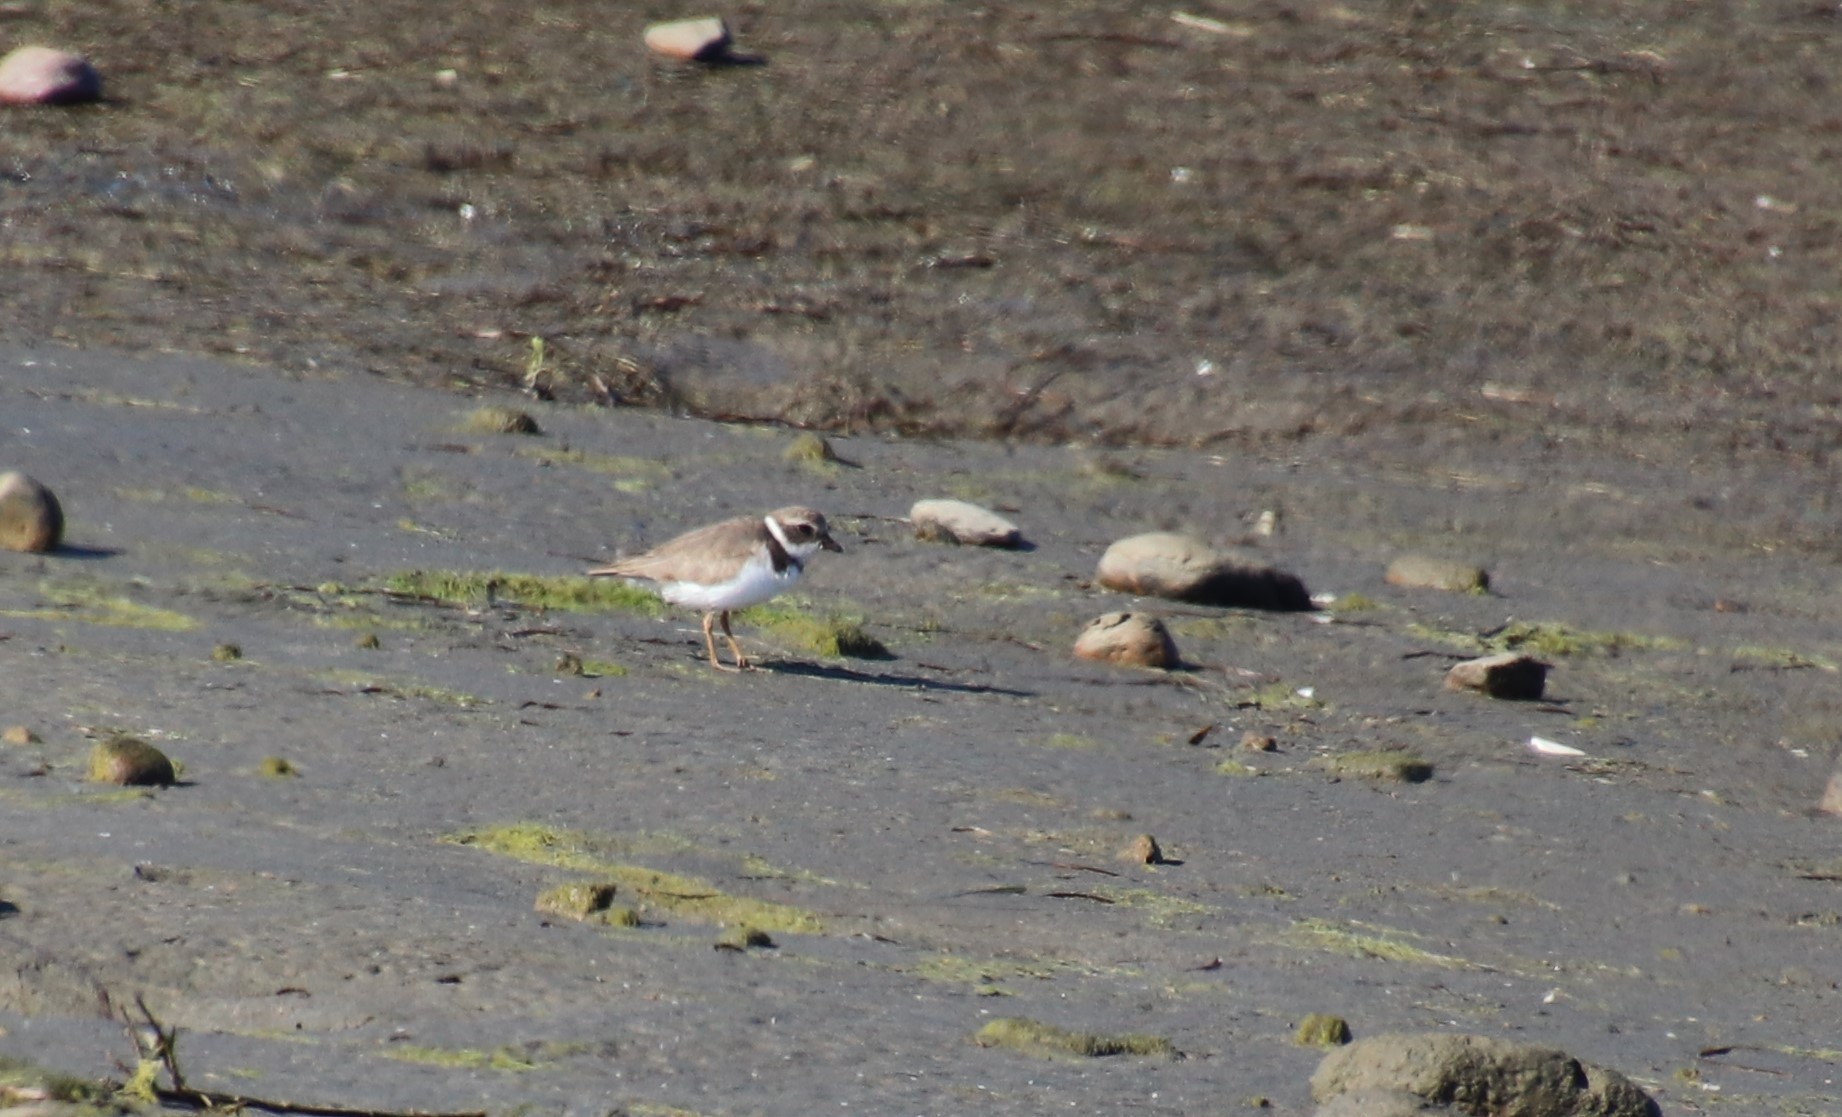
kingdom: Animalia
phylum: Chordata
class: Aves
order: Charadriiformes
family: Charadriidae
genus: Charadrius
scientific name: Charadrius semipalmatus
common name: Semipalmated plover
